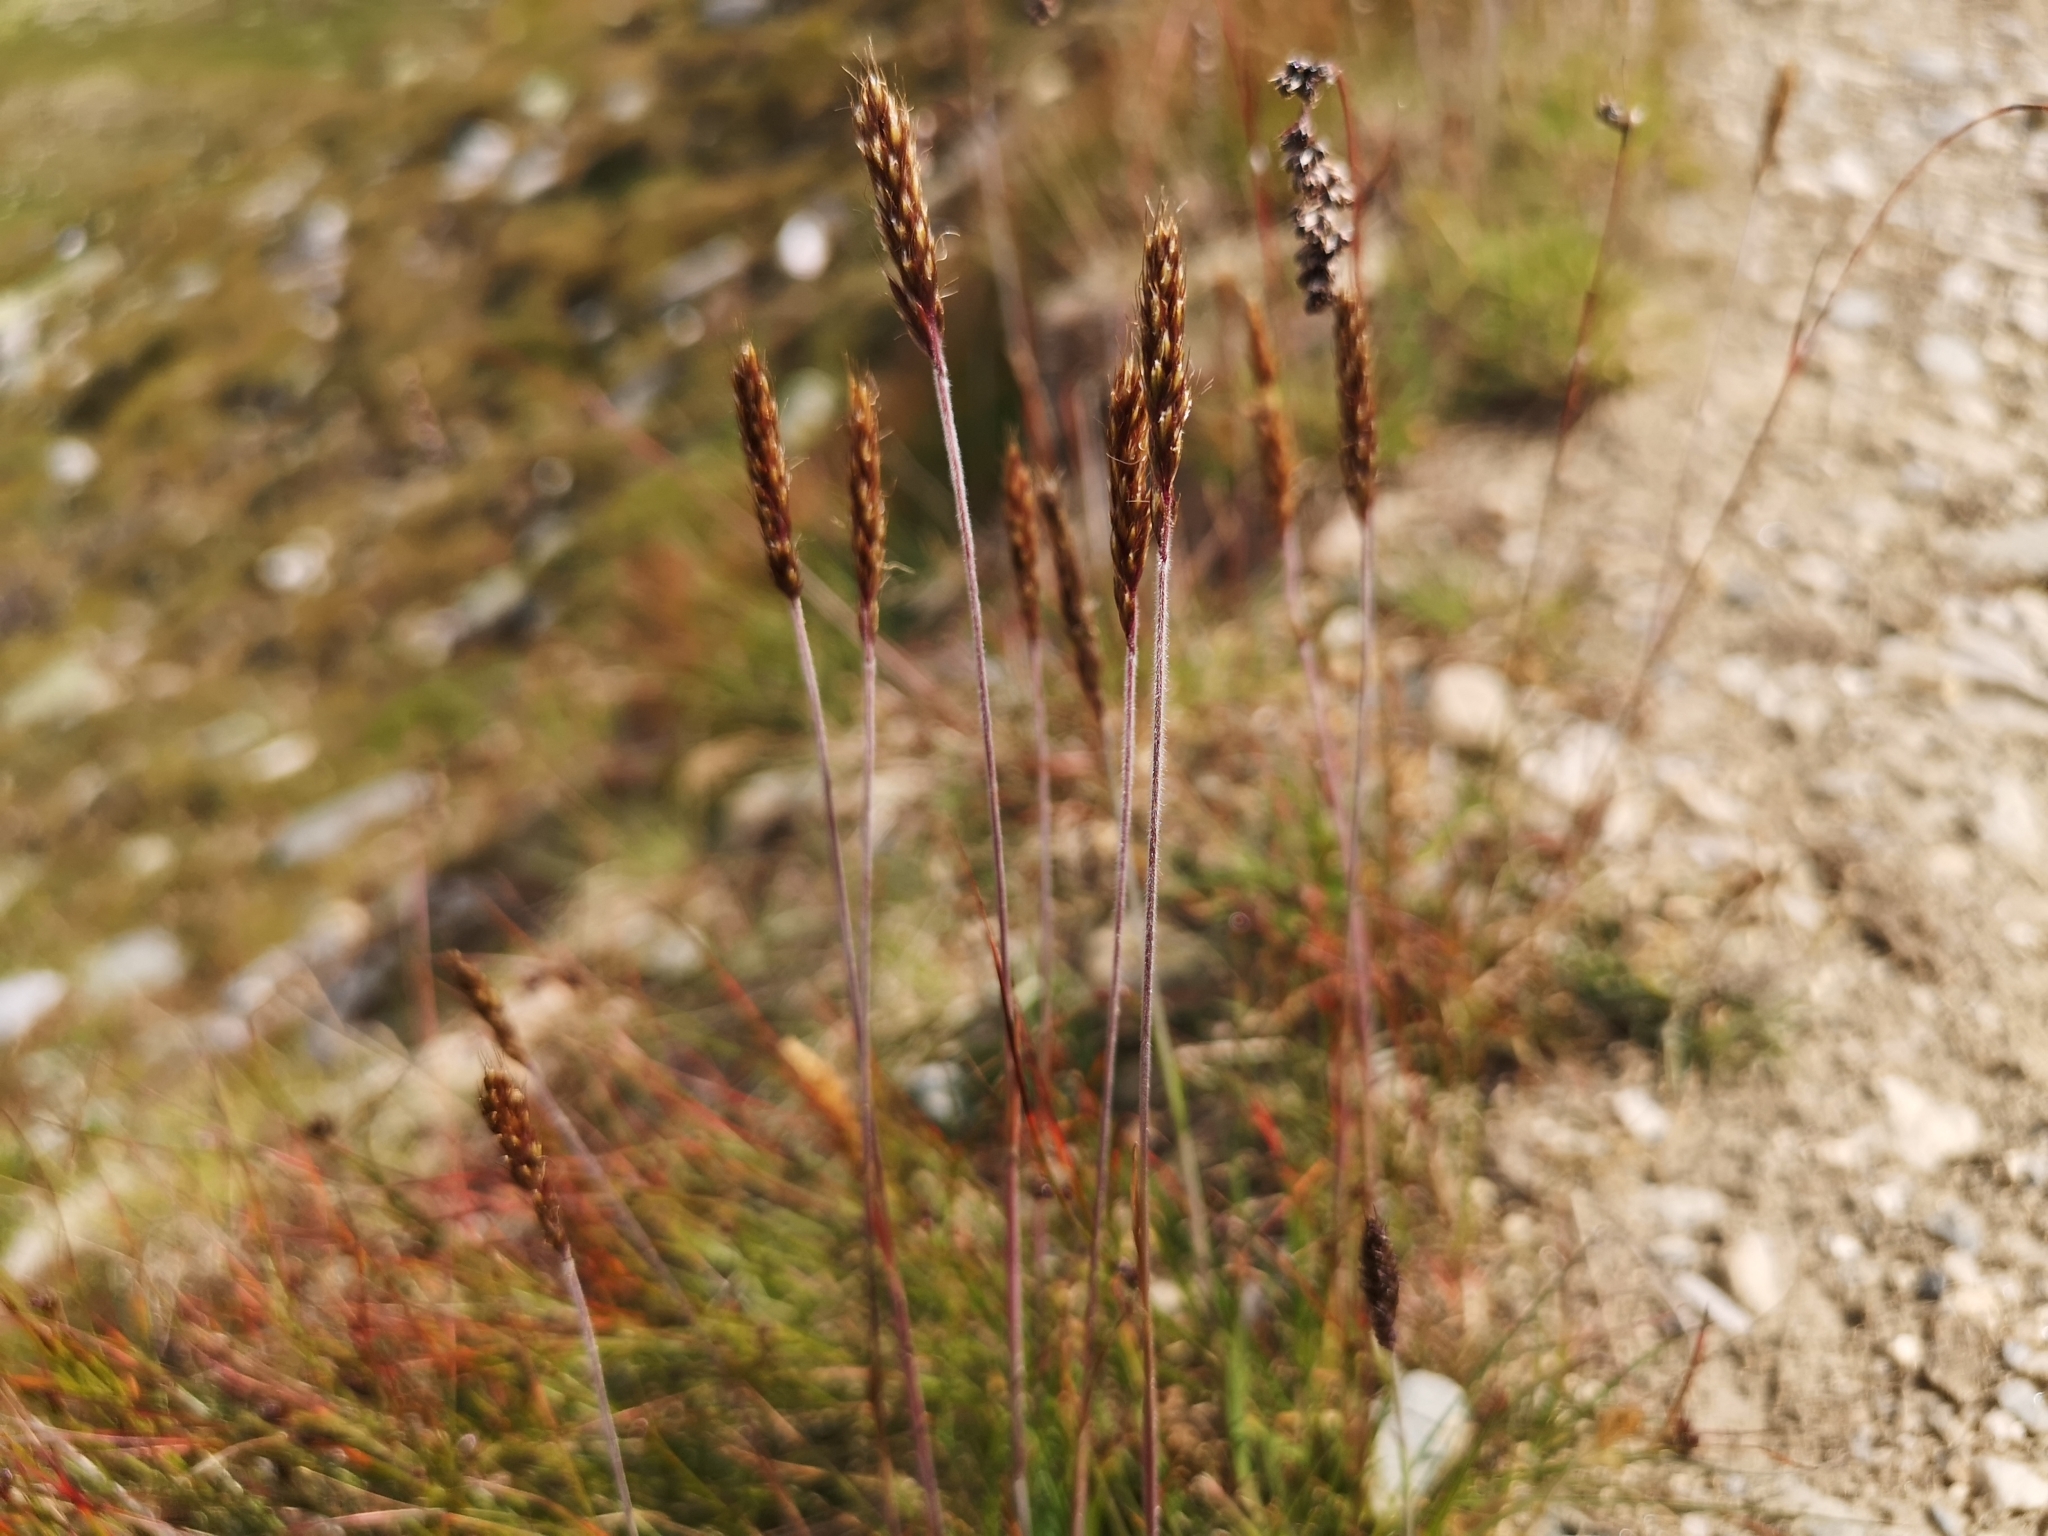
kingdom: Plantae
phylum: Tracheophyta
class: Liliopsida
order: Poales
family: Poaceae
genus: Koeleria
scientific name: Koeleria spicata
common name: Mountain trisetum
